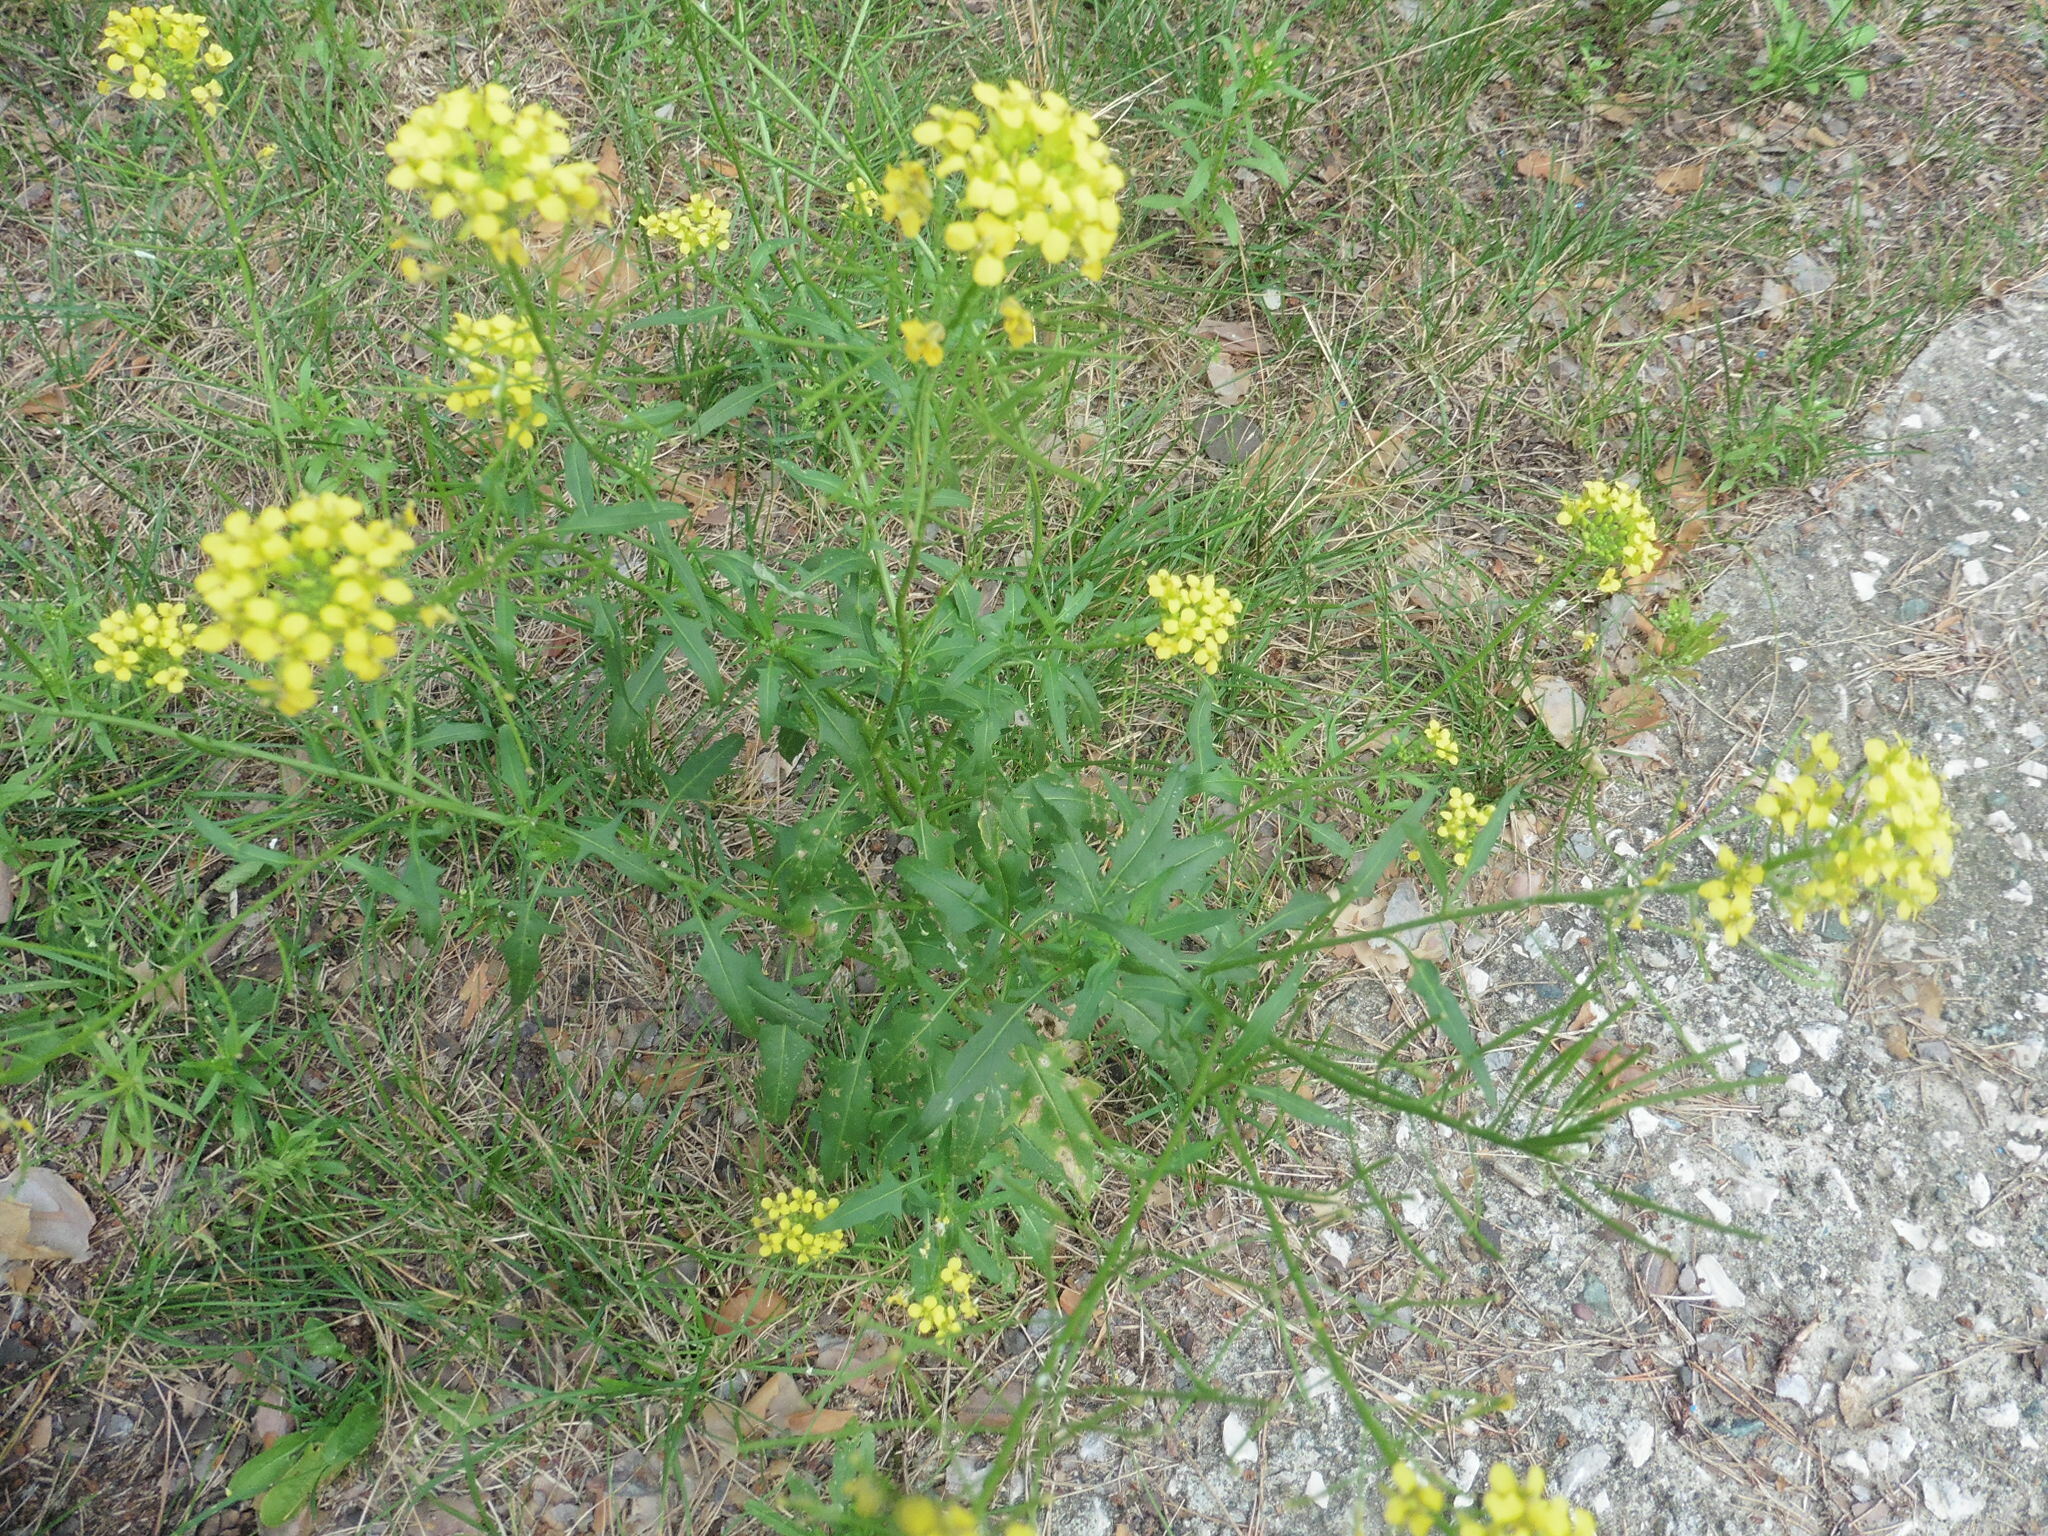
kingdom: Plantae
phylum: Tracheophyta
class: Magnoliopsida
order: Brassicales
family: Brassicaceae
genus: Sisymbrium
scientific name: Sisymbrium loeselii
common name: False london-rocket
